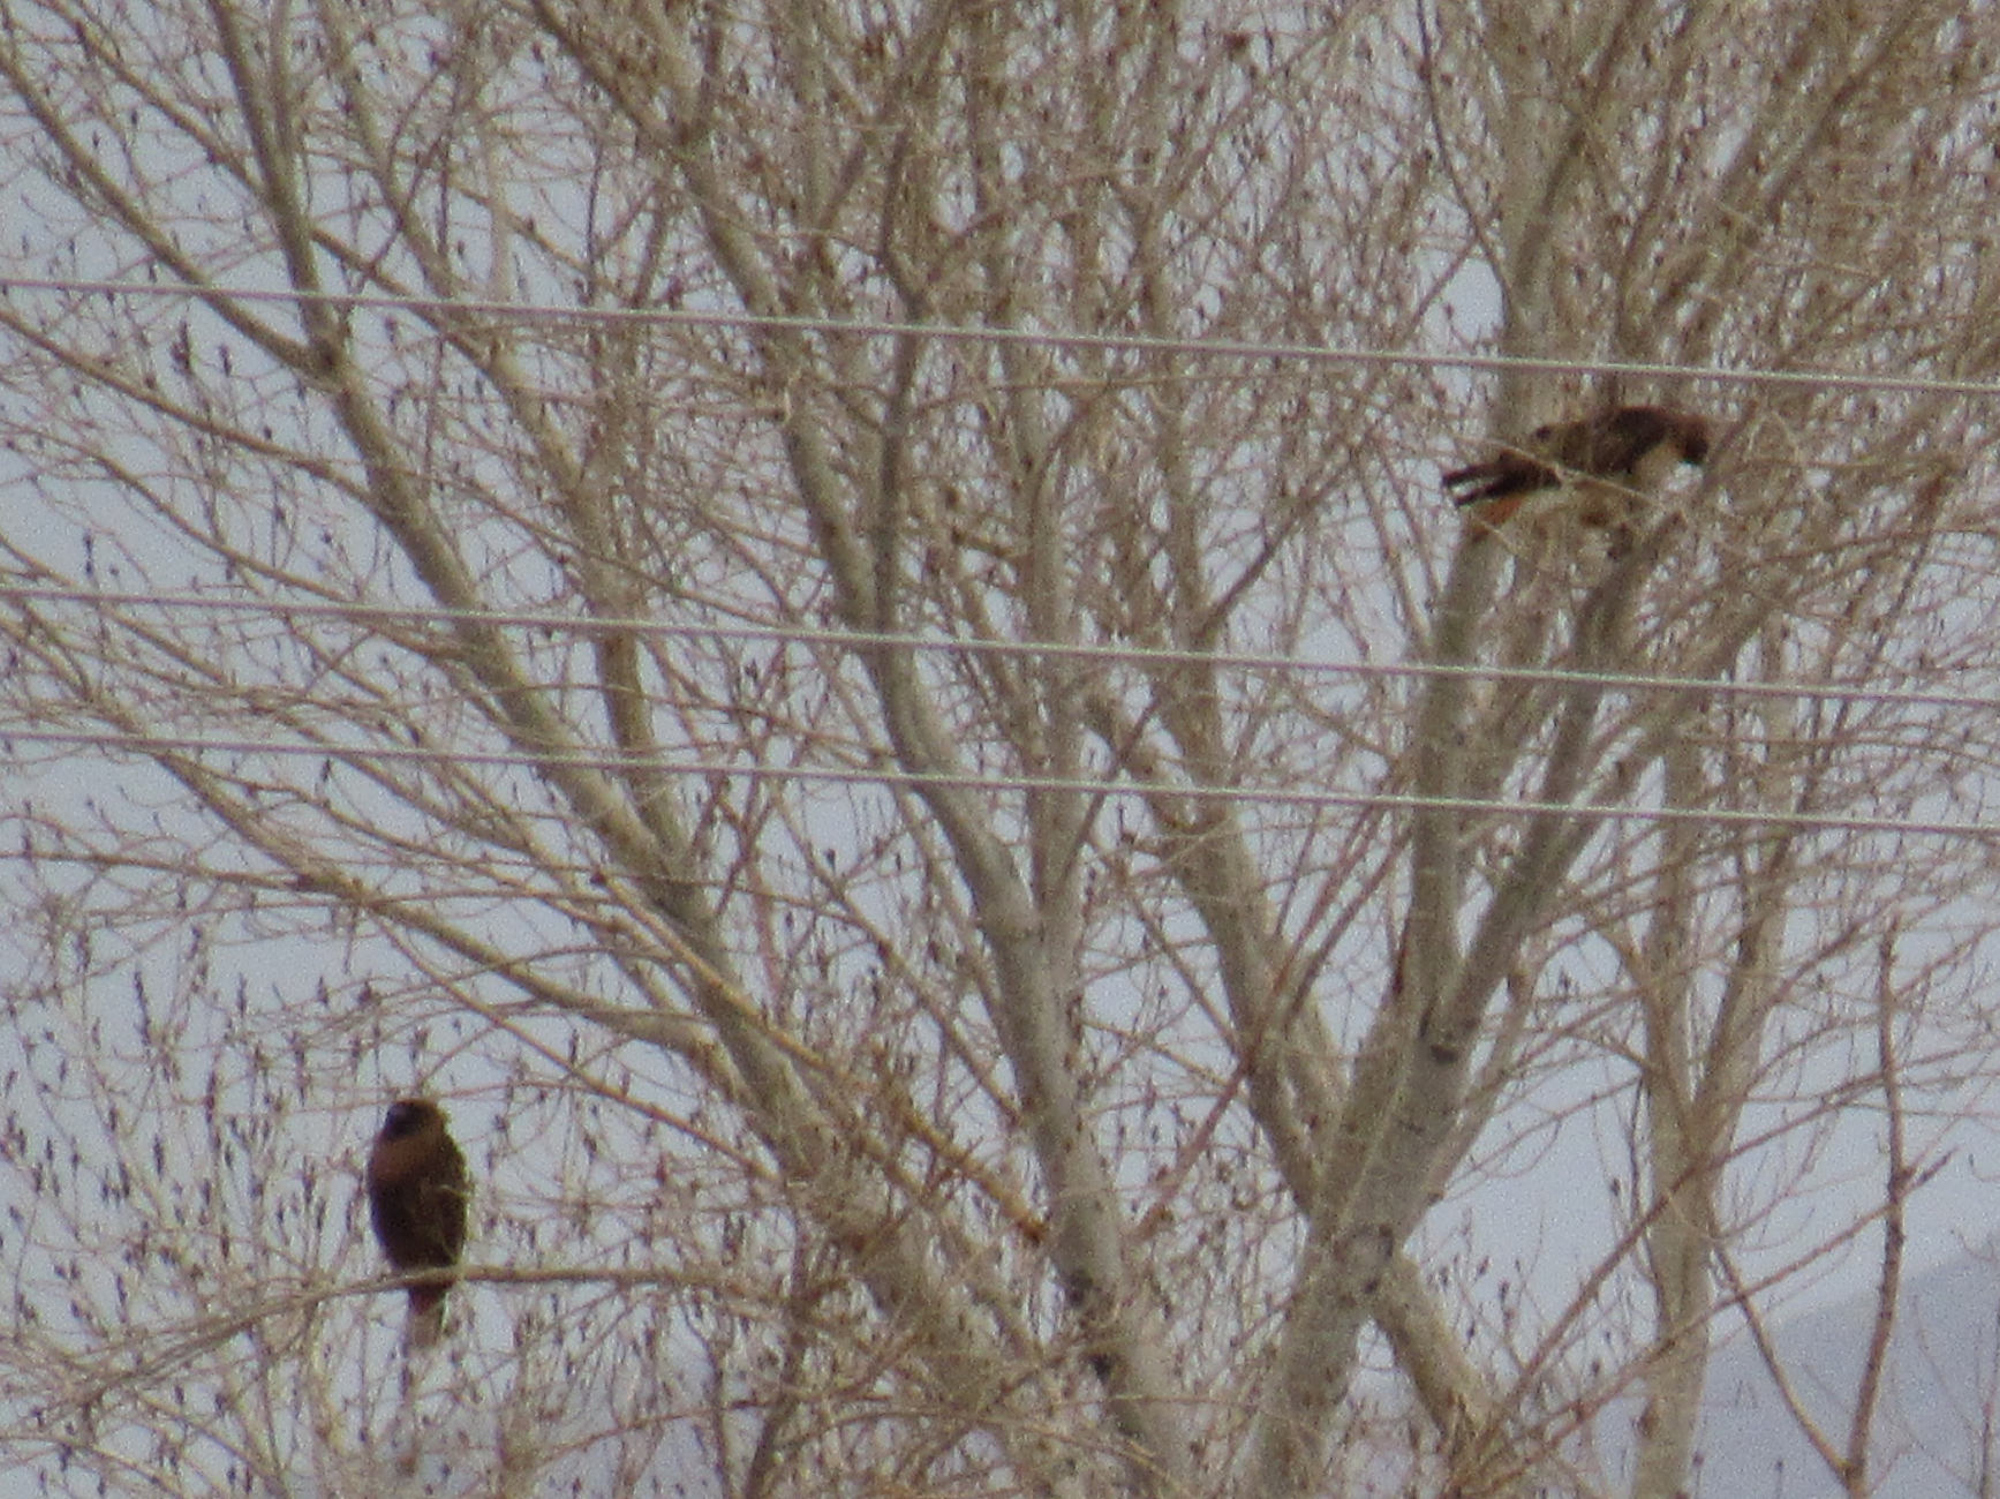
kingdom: Animalia
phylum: Chordata
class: Aves
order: Accipitriformes
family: Accipitridae
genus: Buteo
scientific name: Buteo jamaicensis
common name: Red-tailed hawk
